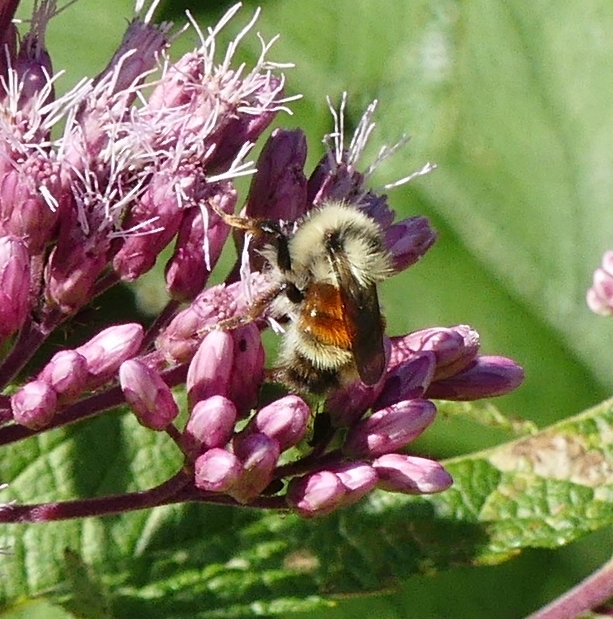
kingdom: Animalia
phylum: Arthropoda
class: Insecta
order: Hymenoptera
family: Apidae
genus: Bombus
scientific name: Bombus ternarius
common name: Tri-colored bumble bee
